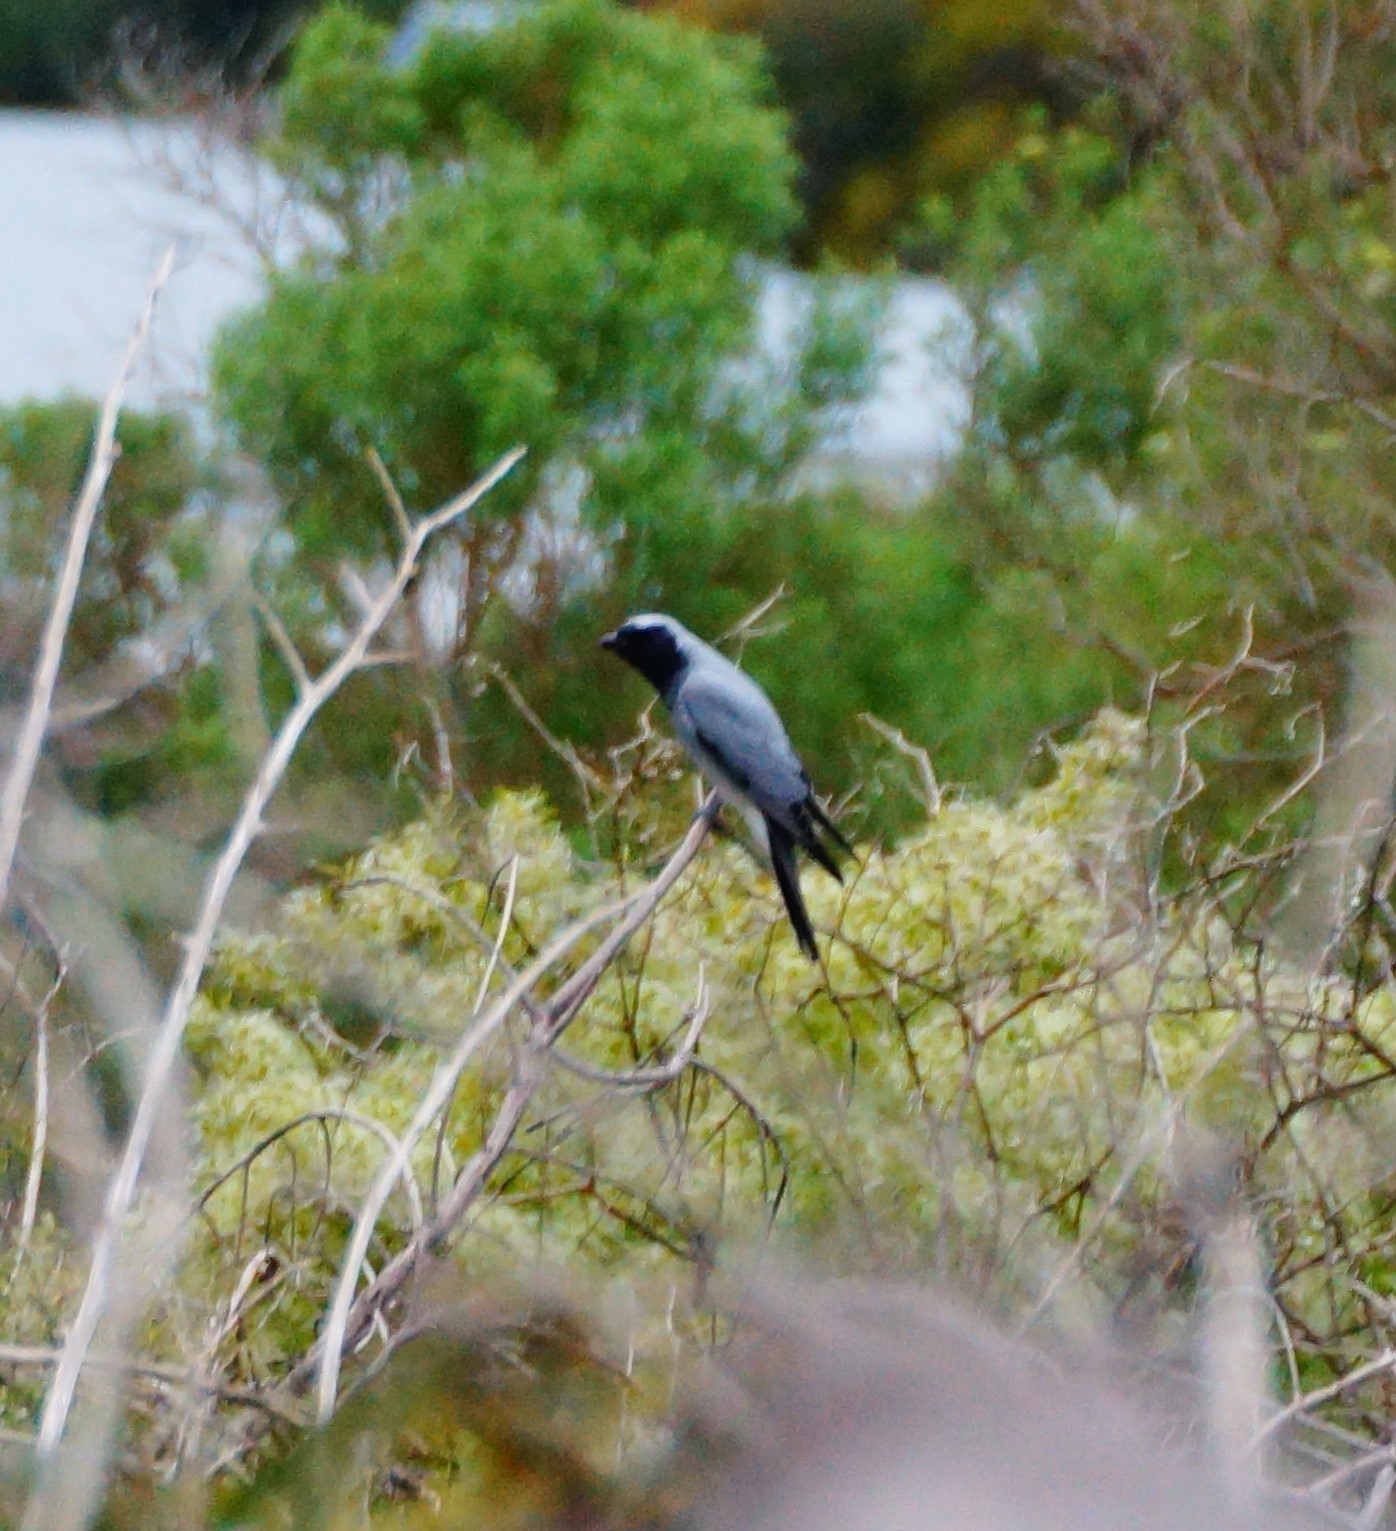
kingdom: Animalia
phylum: Chordata
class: Aves
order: Passeriformes
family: Campephagidae
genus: Coracina
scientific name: Coracina novaehollandiae
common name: Black-faced cuckooshrike
